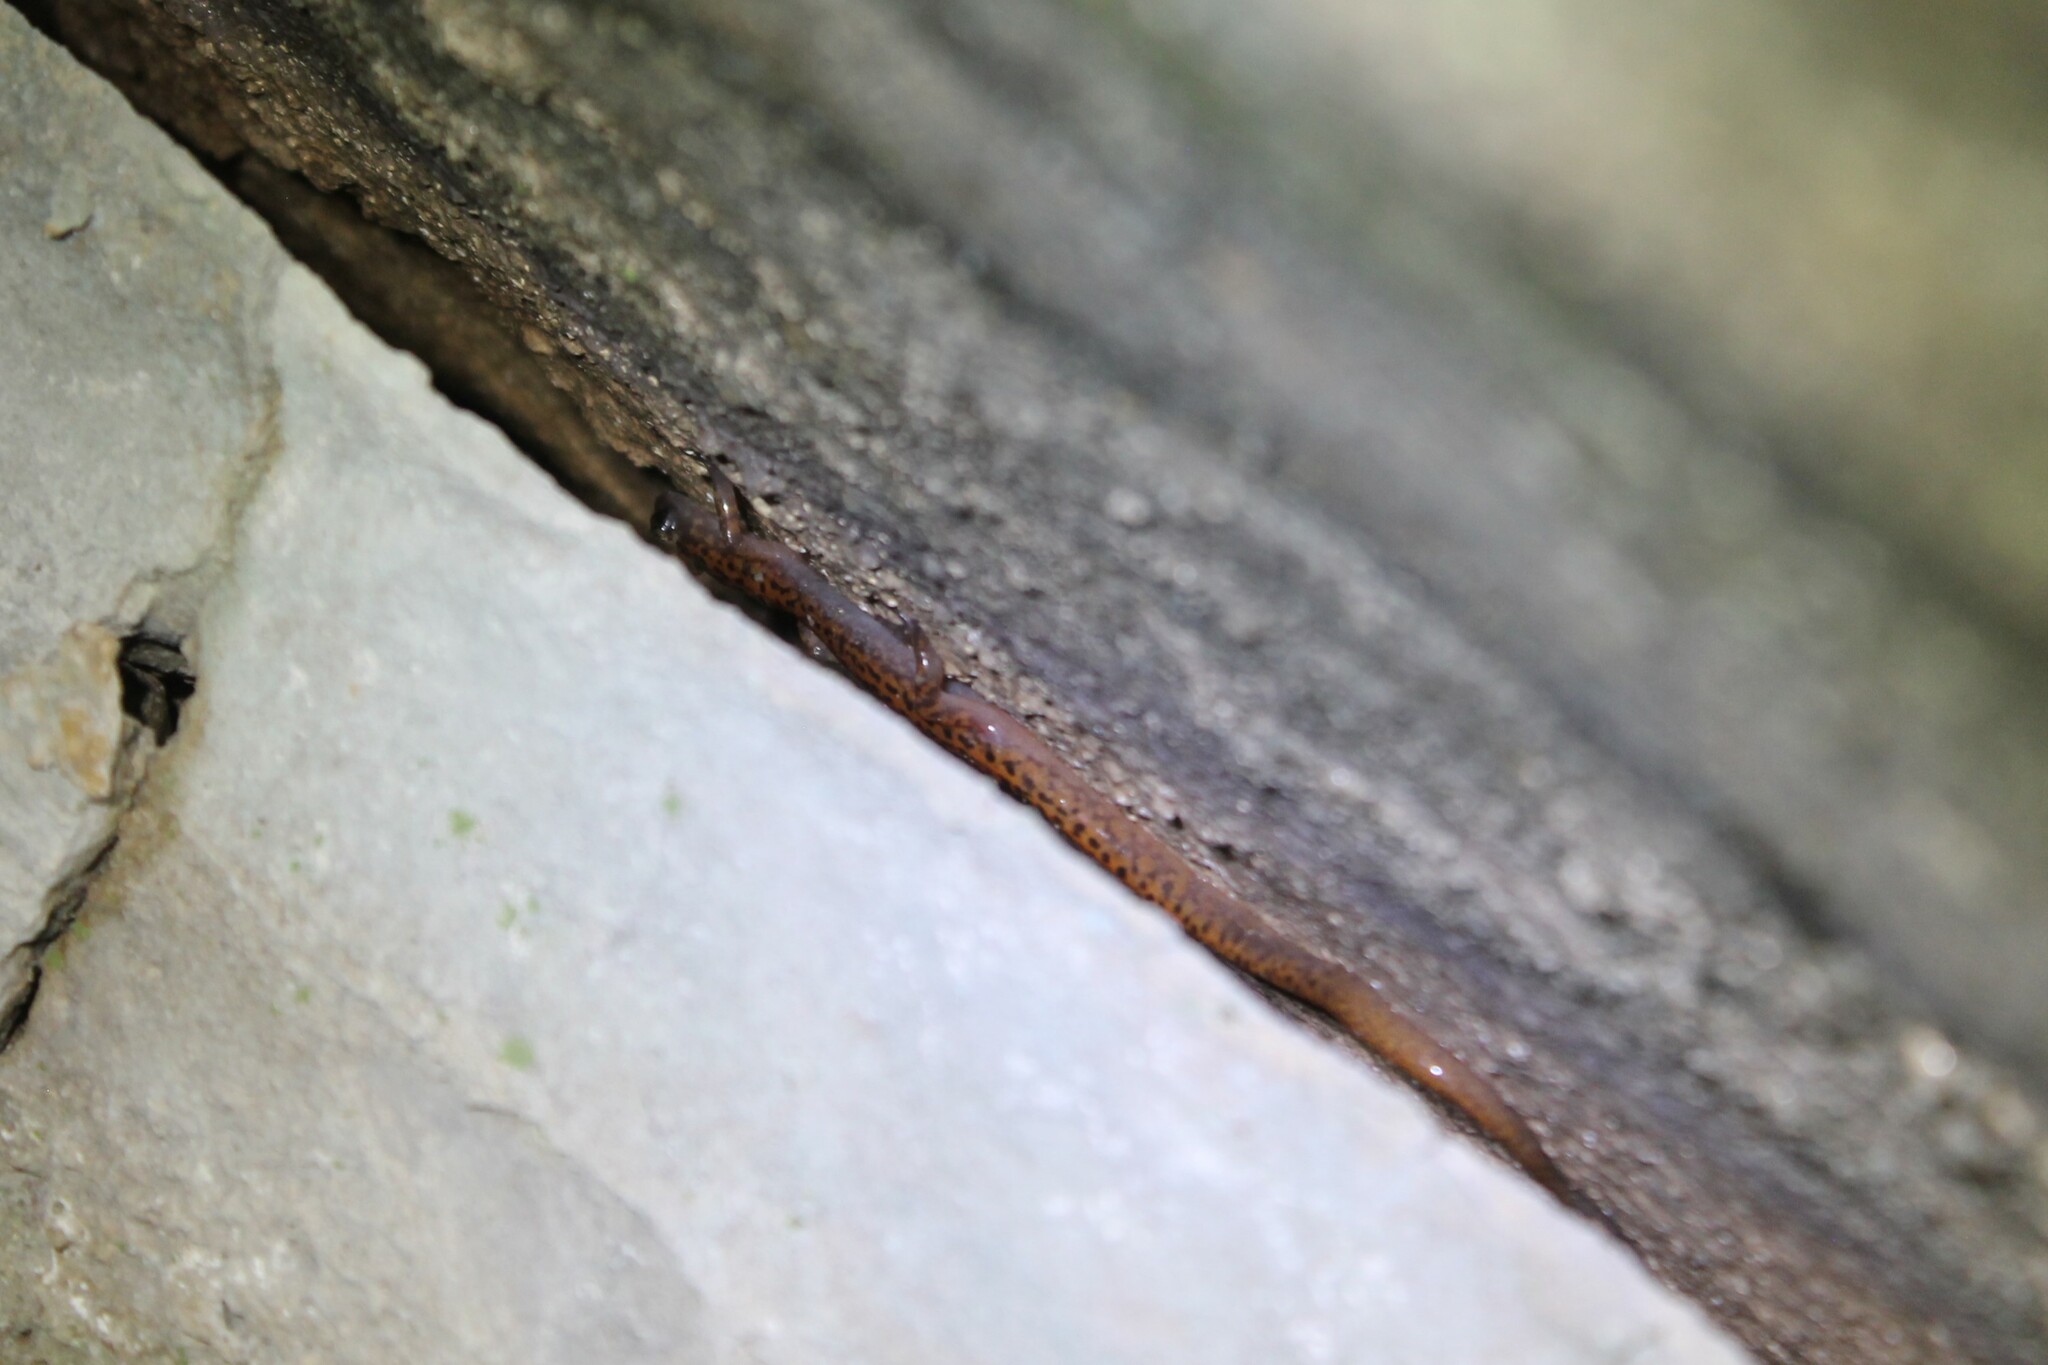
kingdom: Animalia
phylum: Chordata
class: Amphibia
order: Caudata
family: Plethodontidae
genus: Eurycea
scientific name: Eurycea lucifuga
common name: Cave salamander
